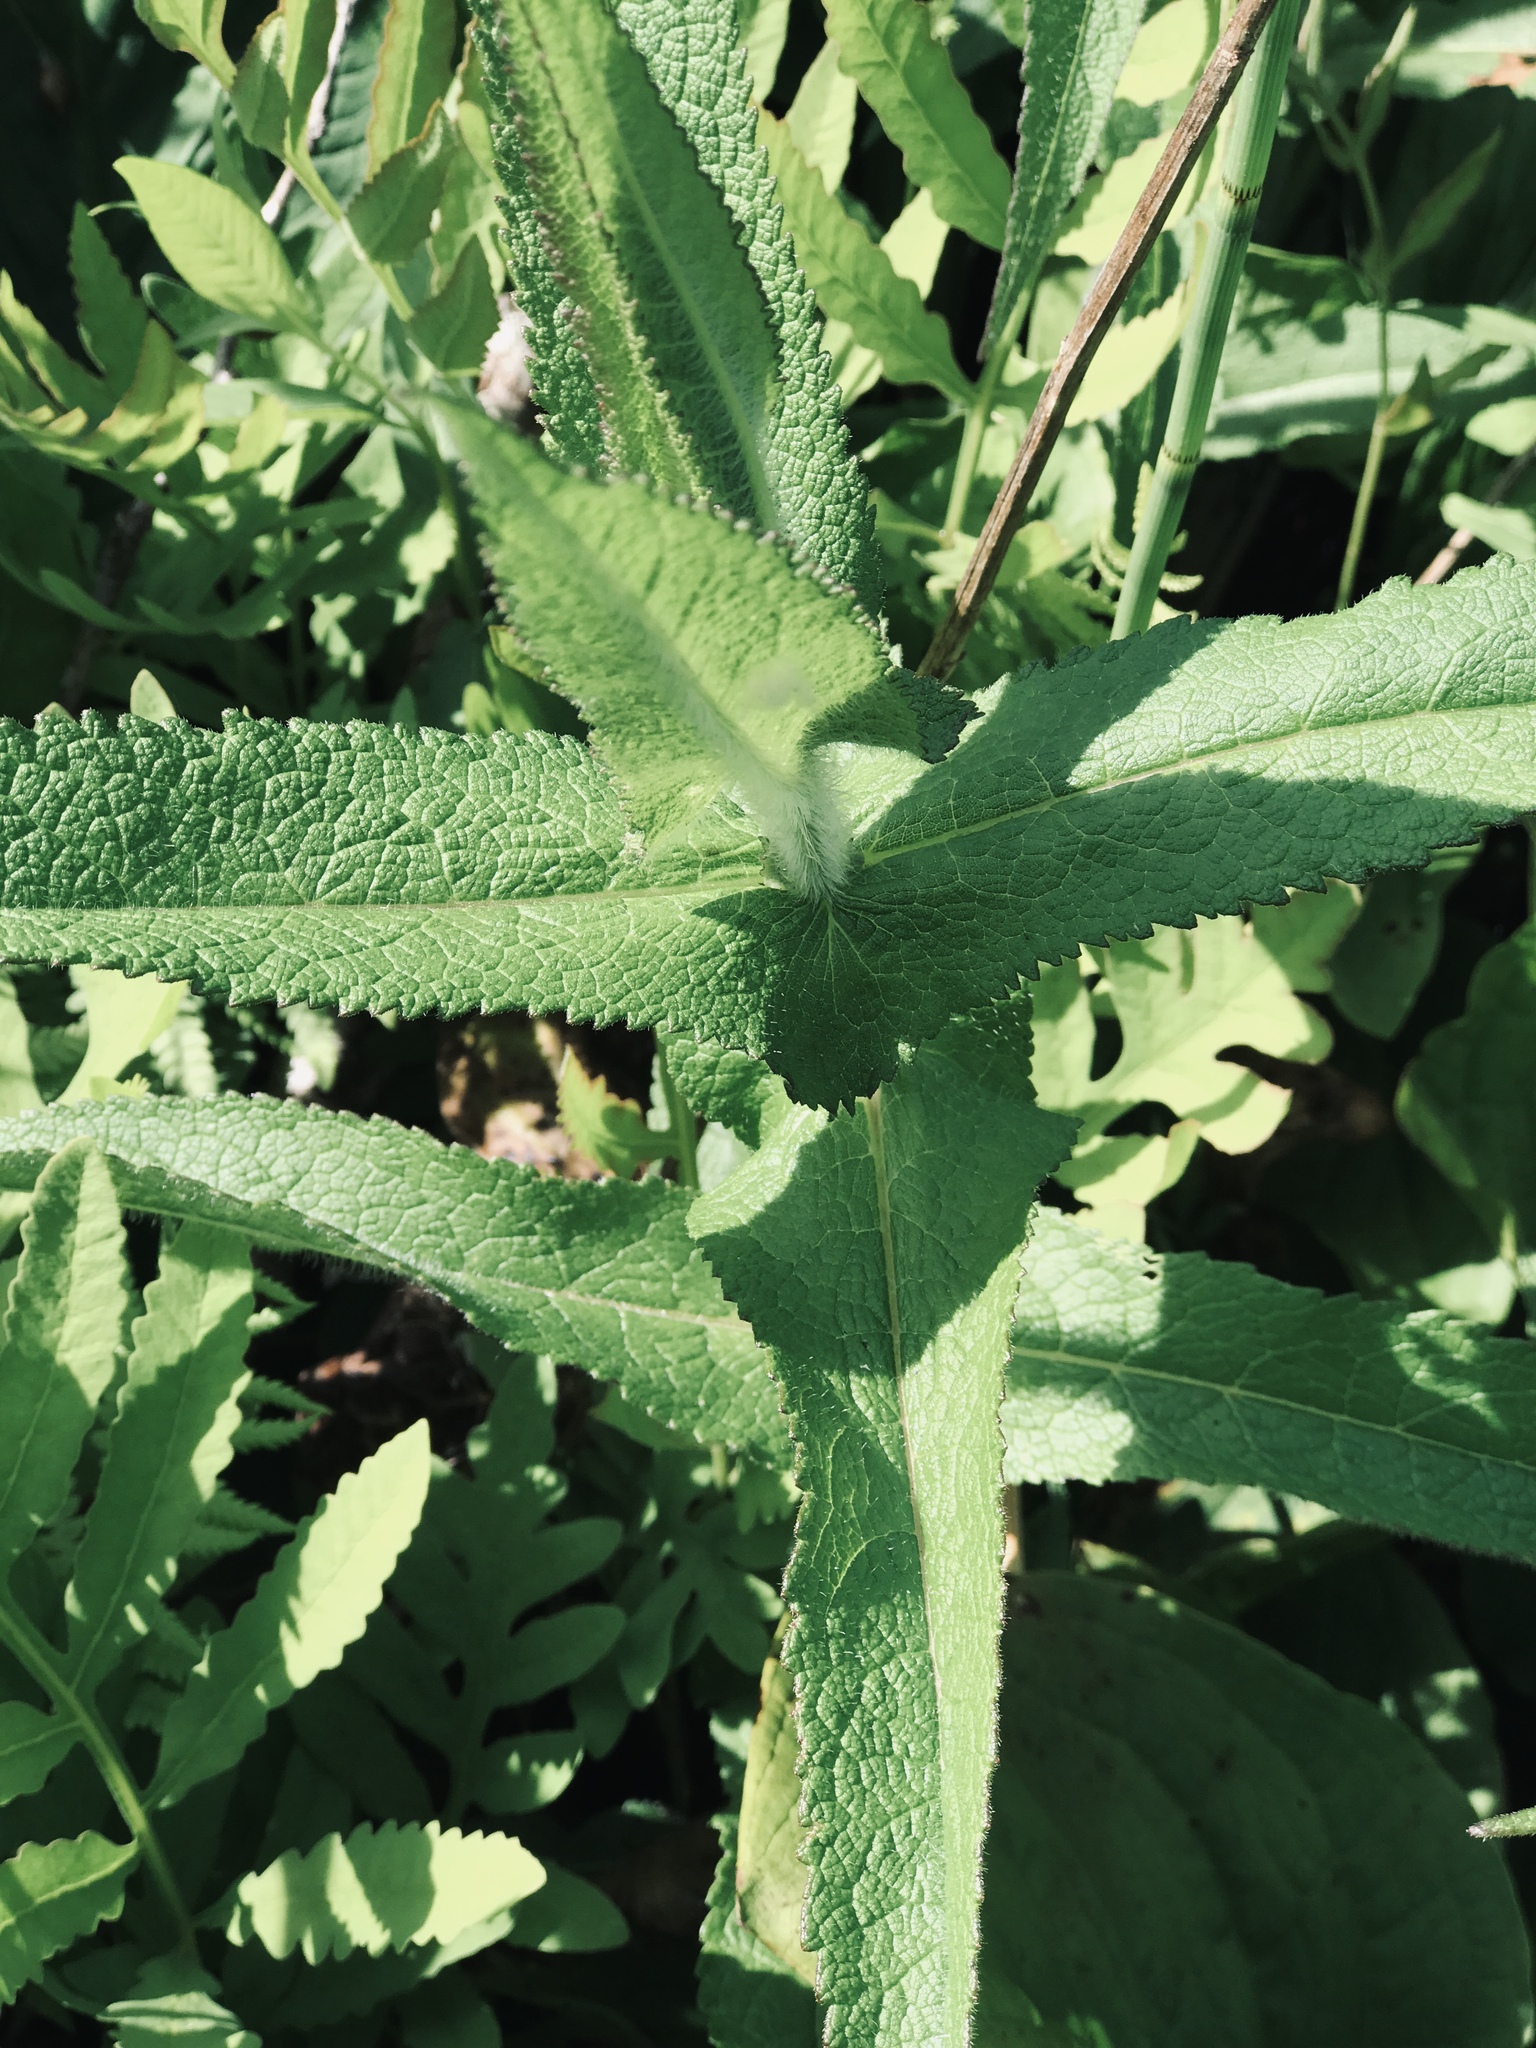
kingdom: Plantae
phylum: Tracheophyta
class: Magnoliopsida
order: Asterales
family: Asteraceae
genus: Eupatorium
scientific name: Eupatorium perfoliatum
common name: Boneset
